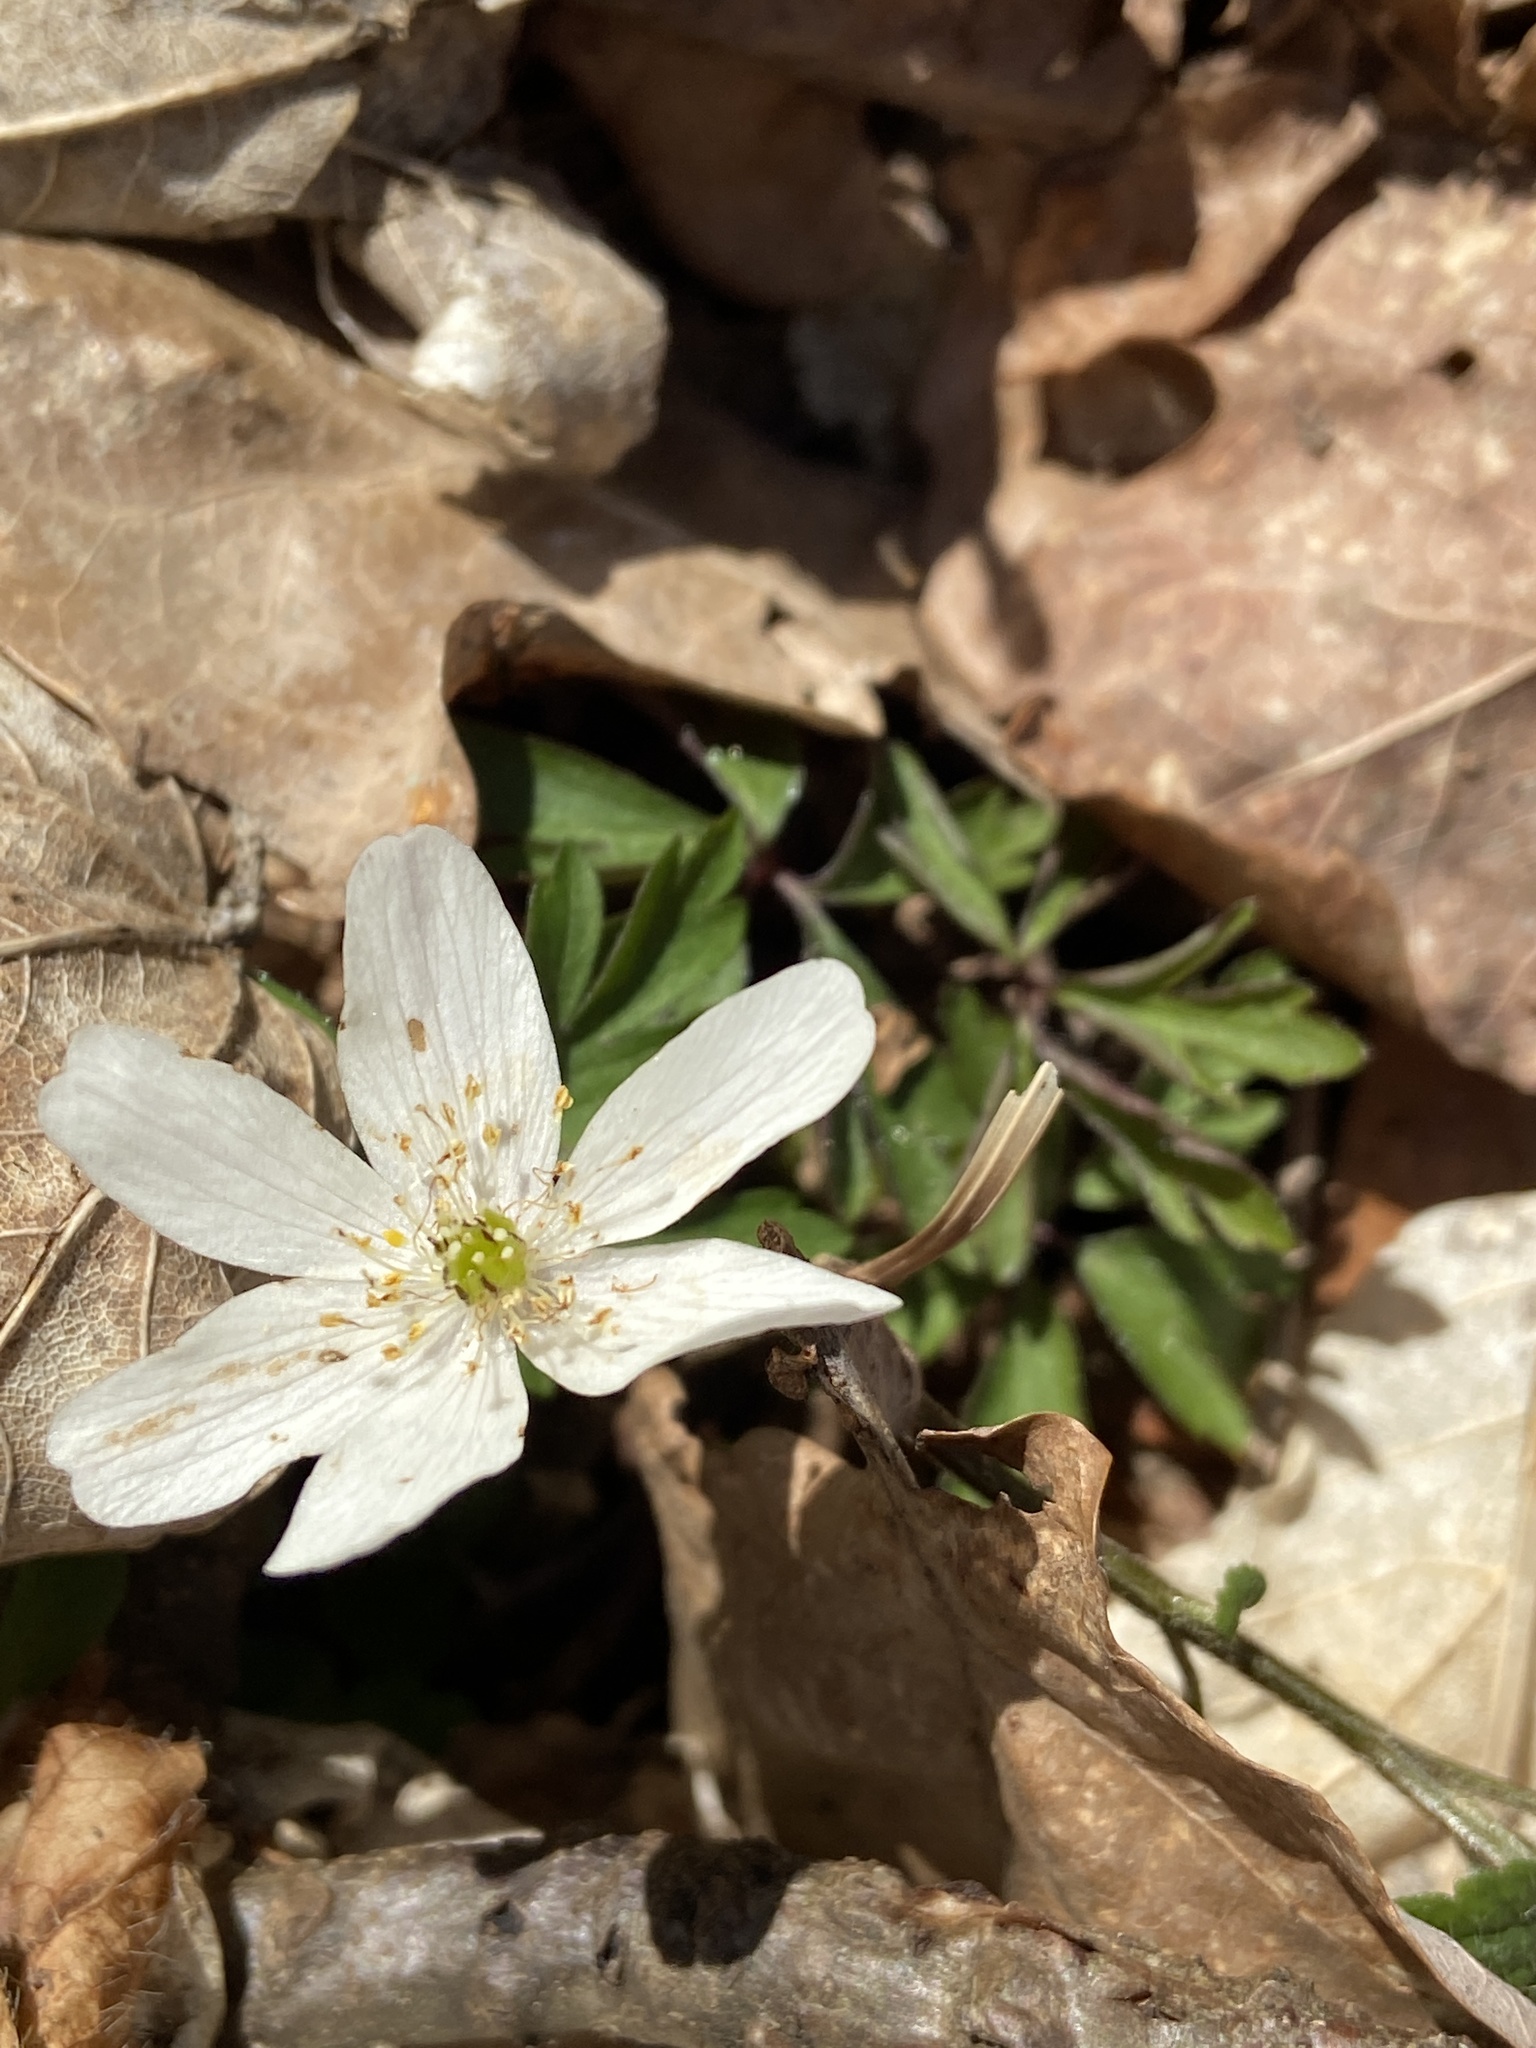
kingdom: Plantae
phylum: Tracheophyta
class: Magnoliopsida
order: Ranunculales
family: Ranunculaceae
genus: Anemone
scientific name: Anemone nemorosa
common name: Wood anemone
